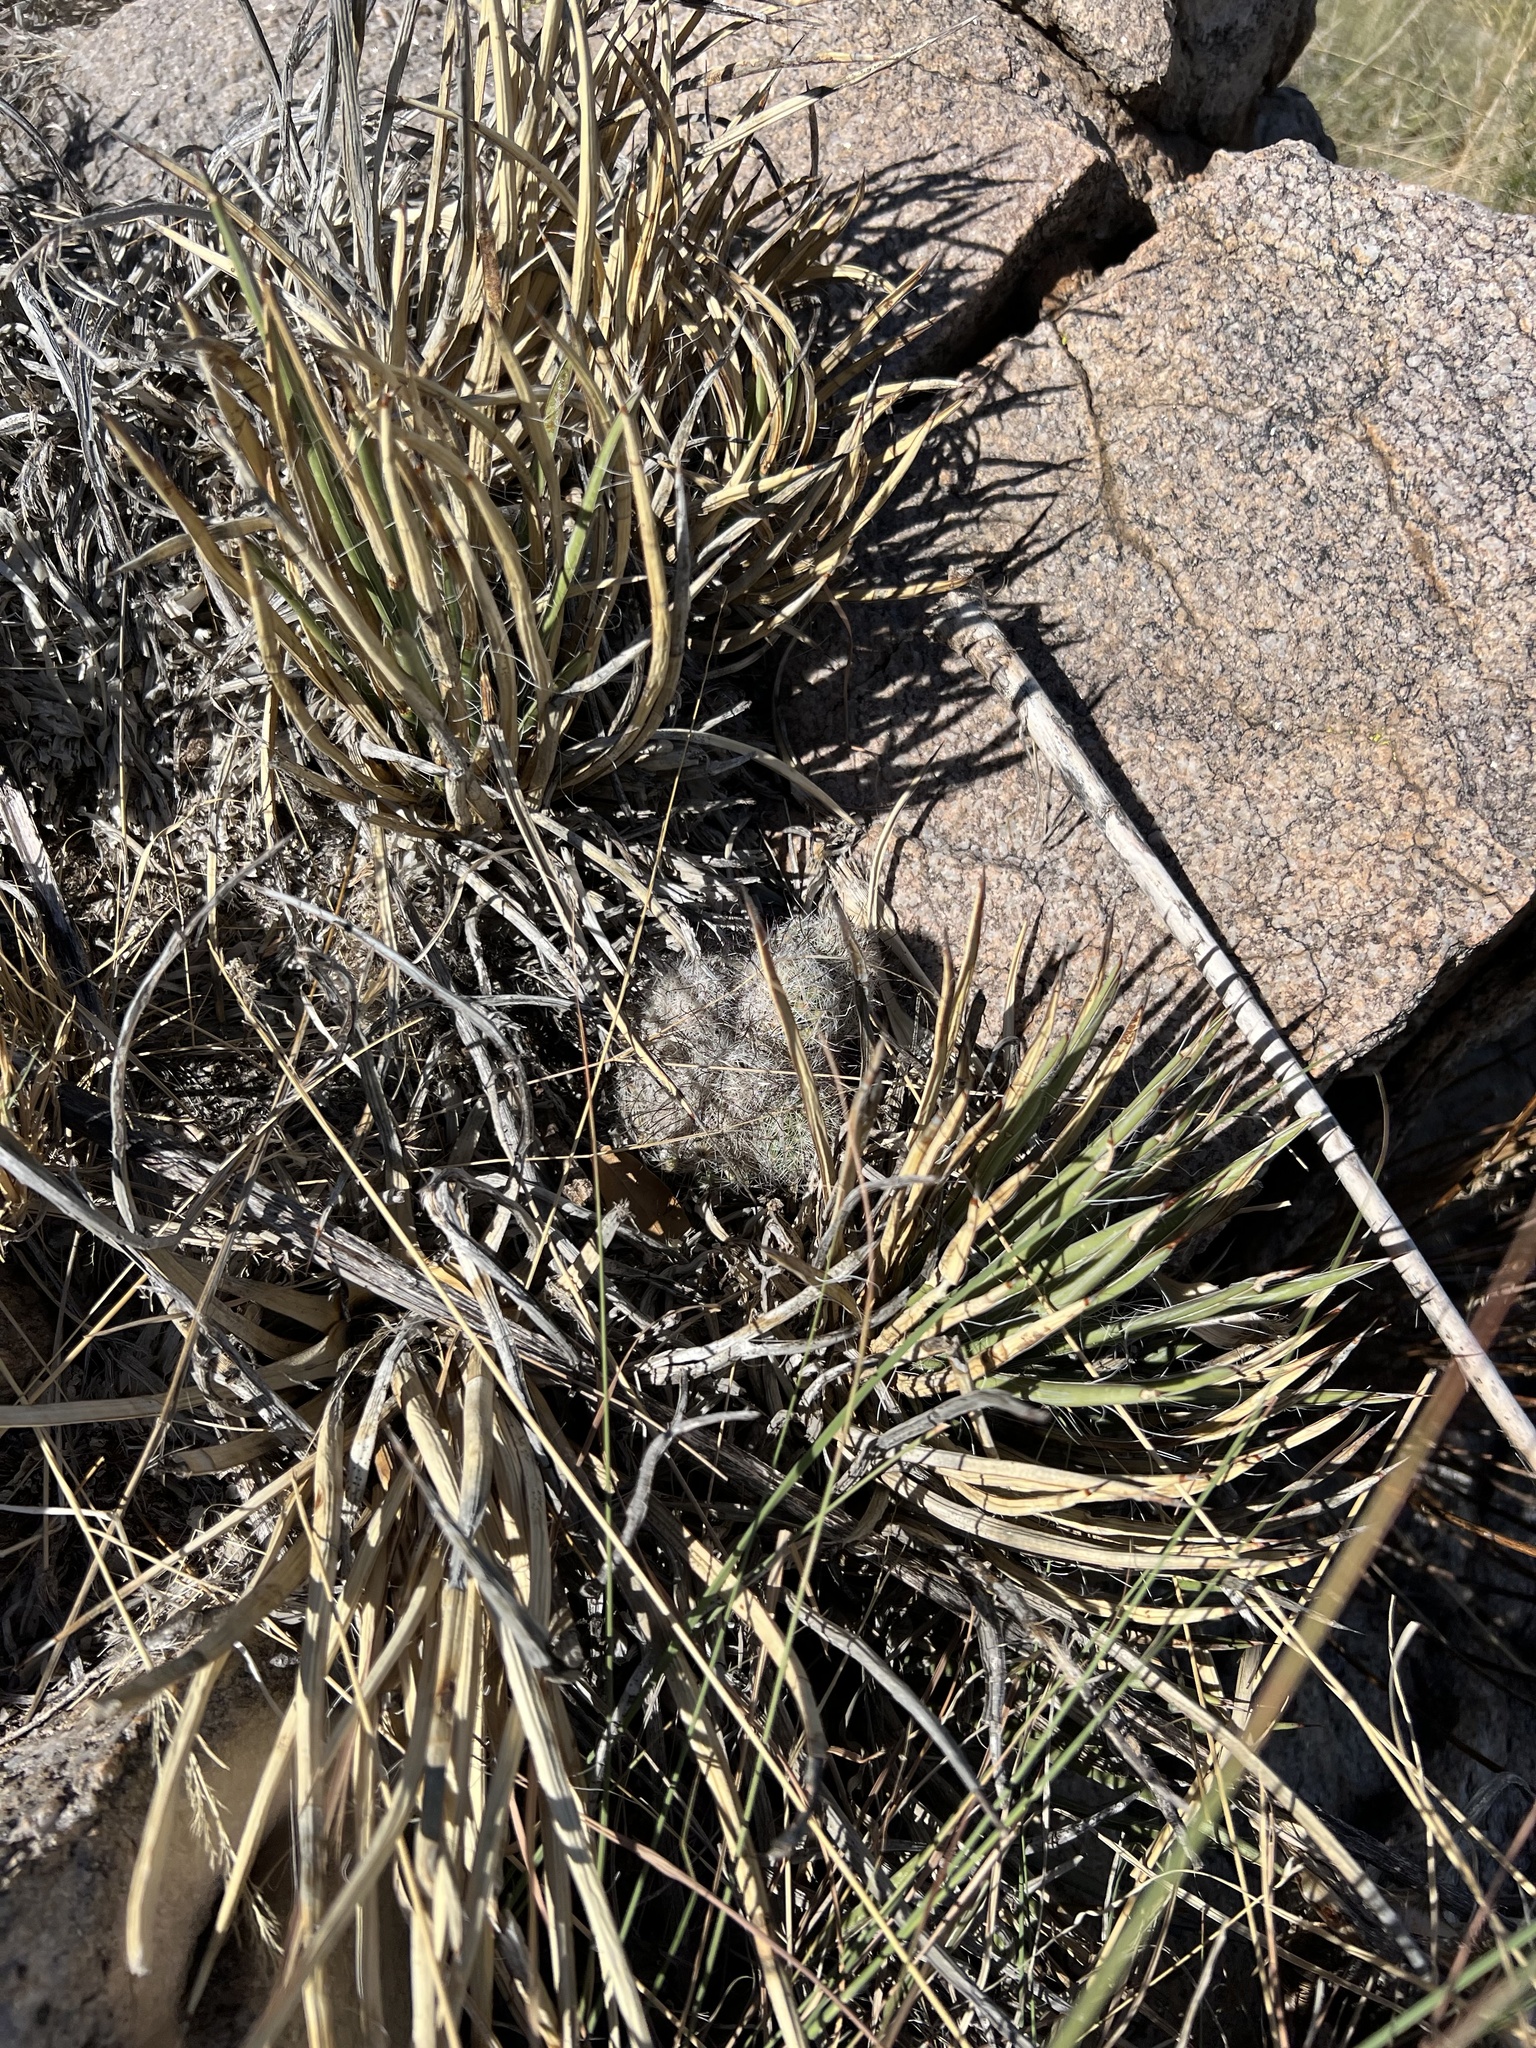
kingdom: Plantae
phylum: Tracheophyta
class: Liliopsida
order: Asparagales
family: Asparagaceae
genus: Agave
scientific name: Agave schottii
